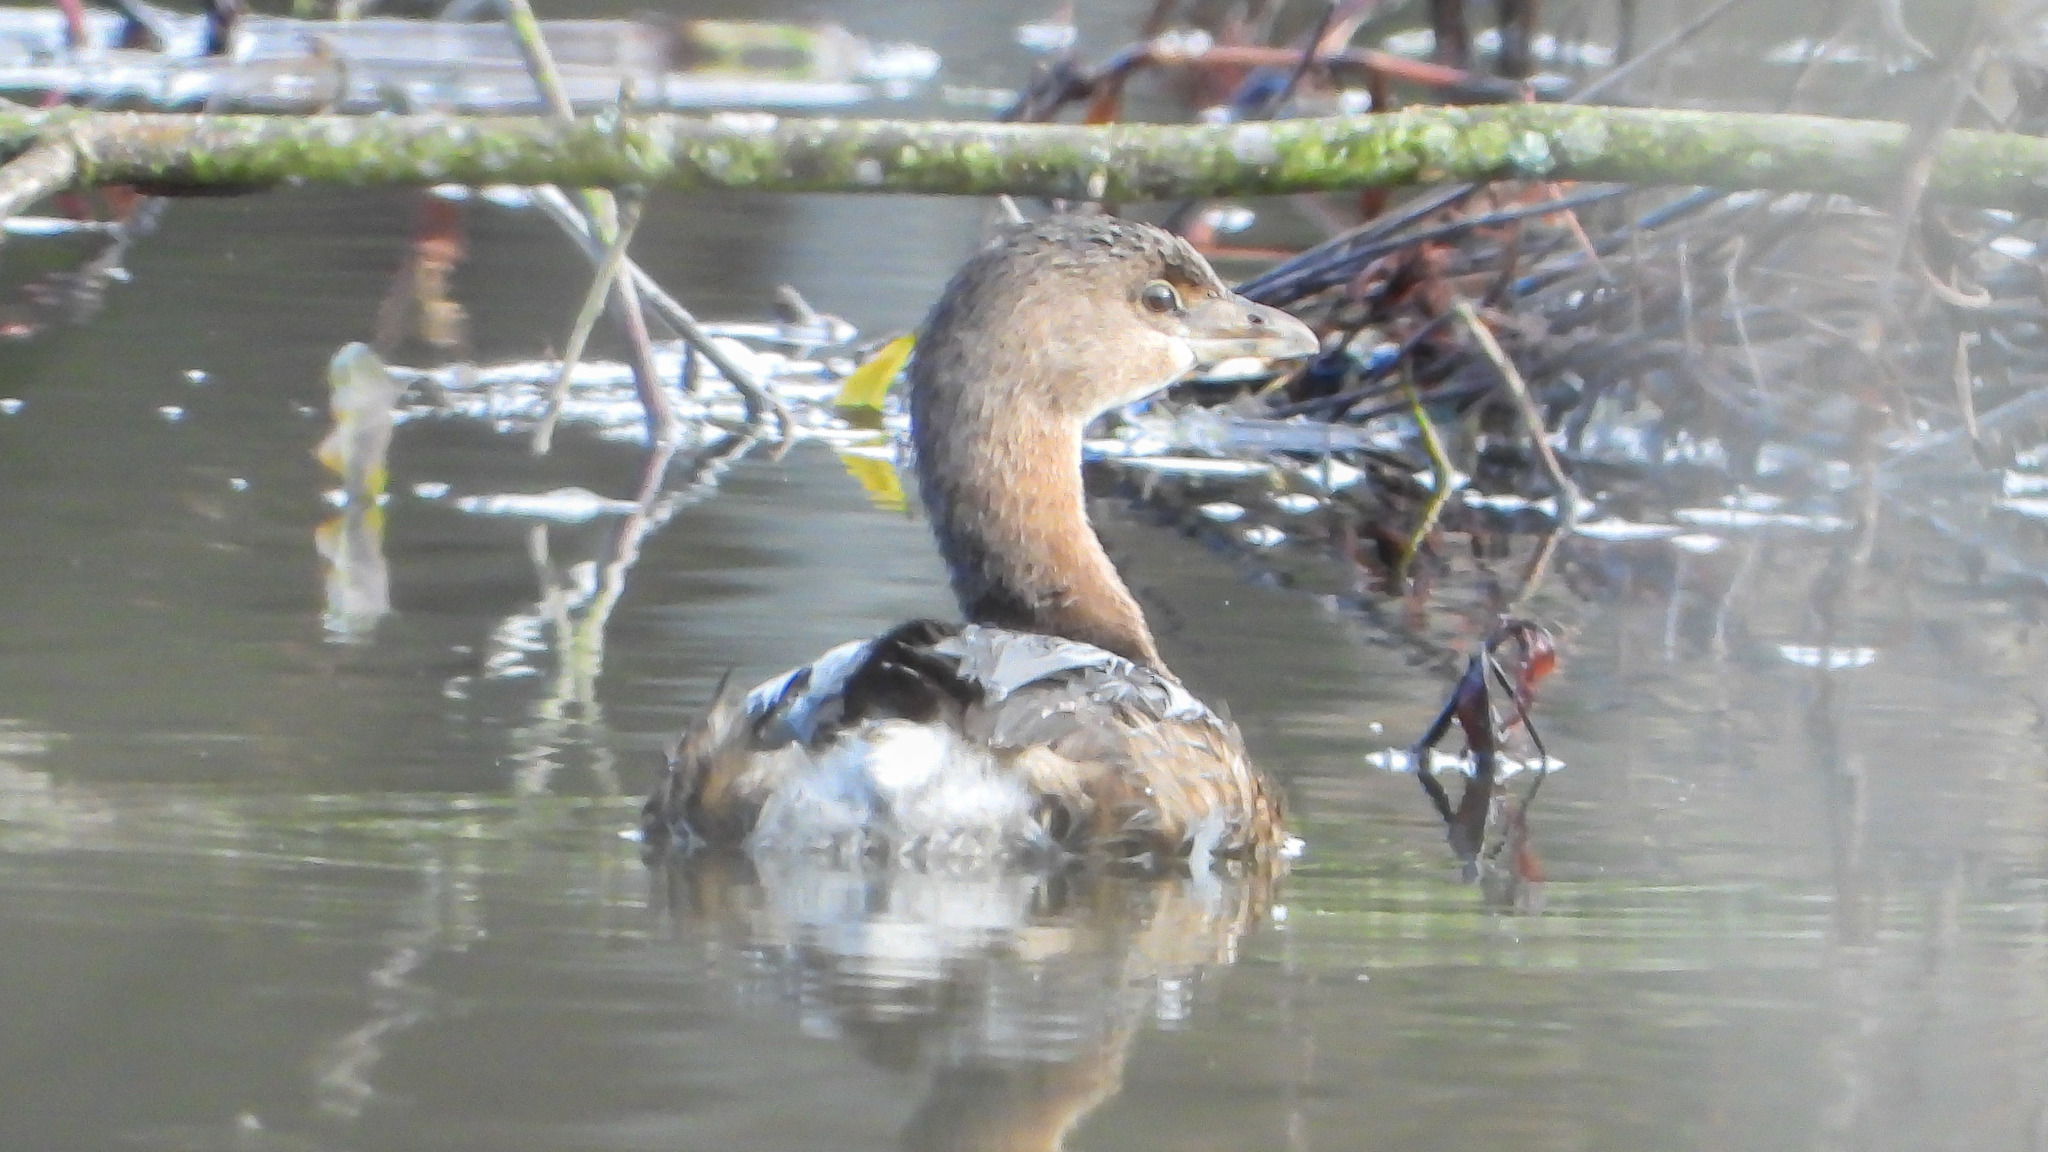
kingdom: Animalia
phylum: Chordata
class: Aves
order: Podicipediformes
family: Podicipedidae
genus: Podilymbus
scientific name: Podilymbus podiceps
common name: Pied-billed grebe
